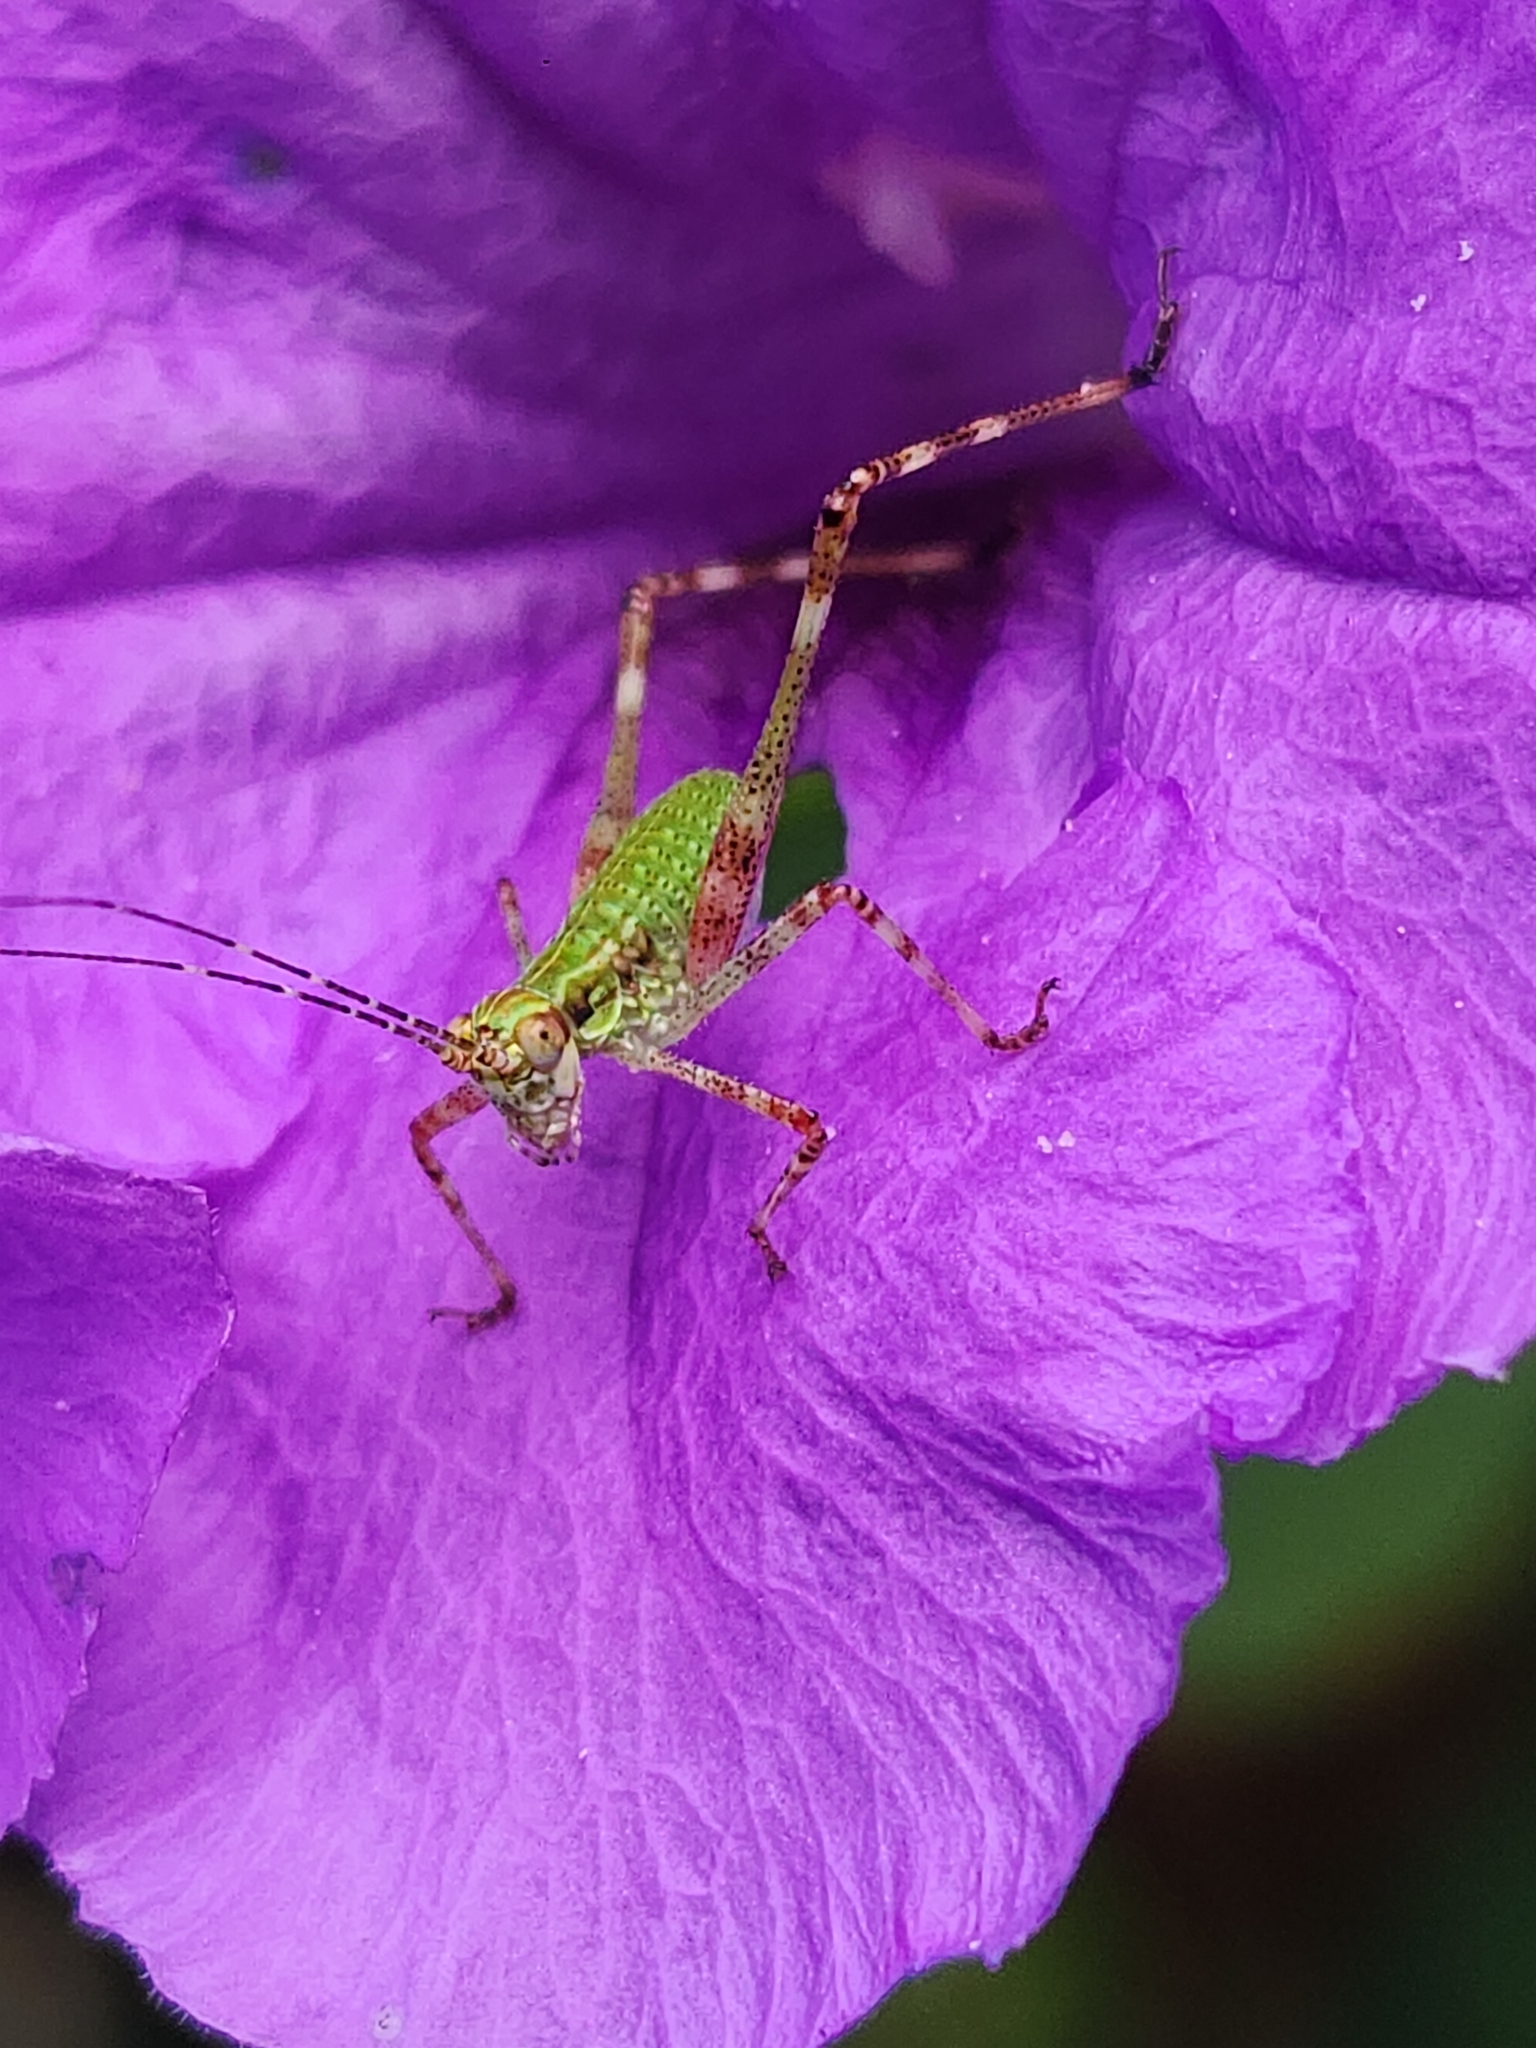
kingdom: Animalia
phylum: Arthropoda
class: Insecta
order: Orthoptera
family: Tettigoniidae
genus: Ligocatinus
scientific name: Ligocatinus spinatus
